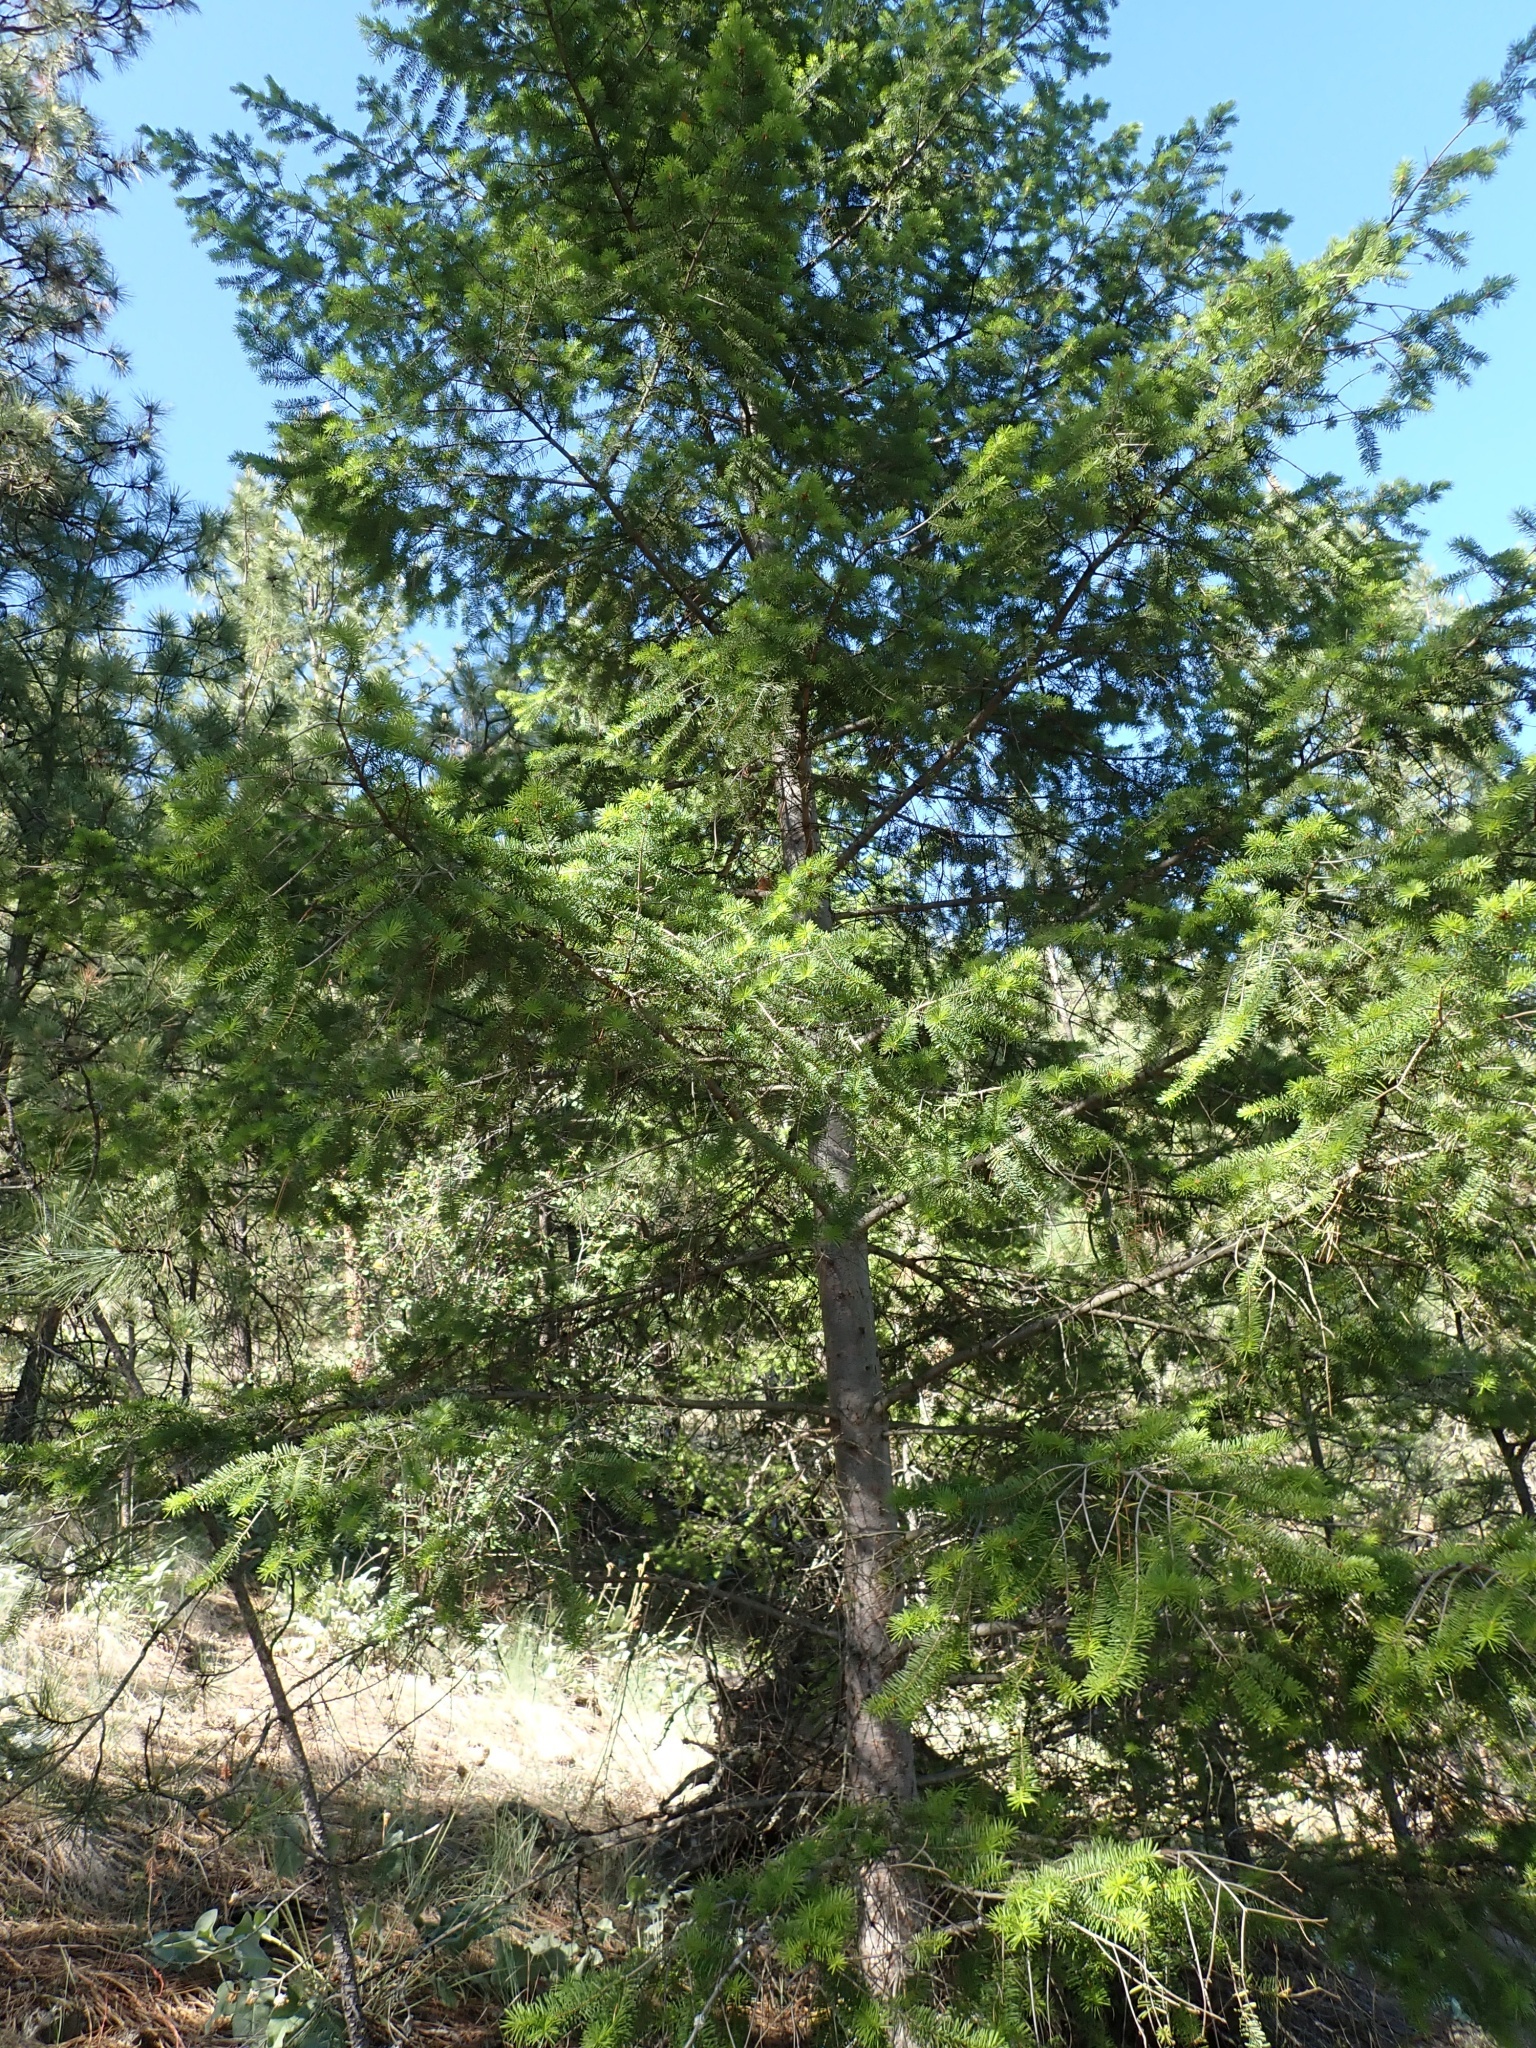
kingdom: Plantae
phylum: Tracheophyta
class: Pinopsida
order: Pinales
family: Pinaceae
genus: Pseudotsuga
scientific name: Pseudotsuga menziesii
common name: Douglas fir
